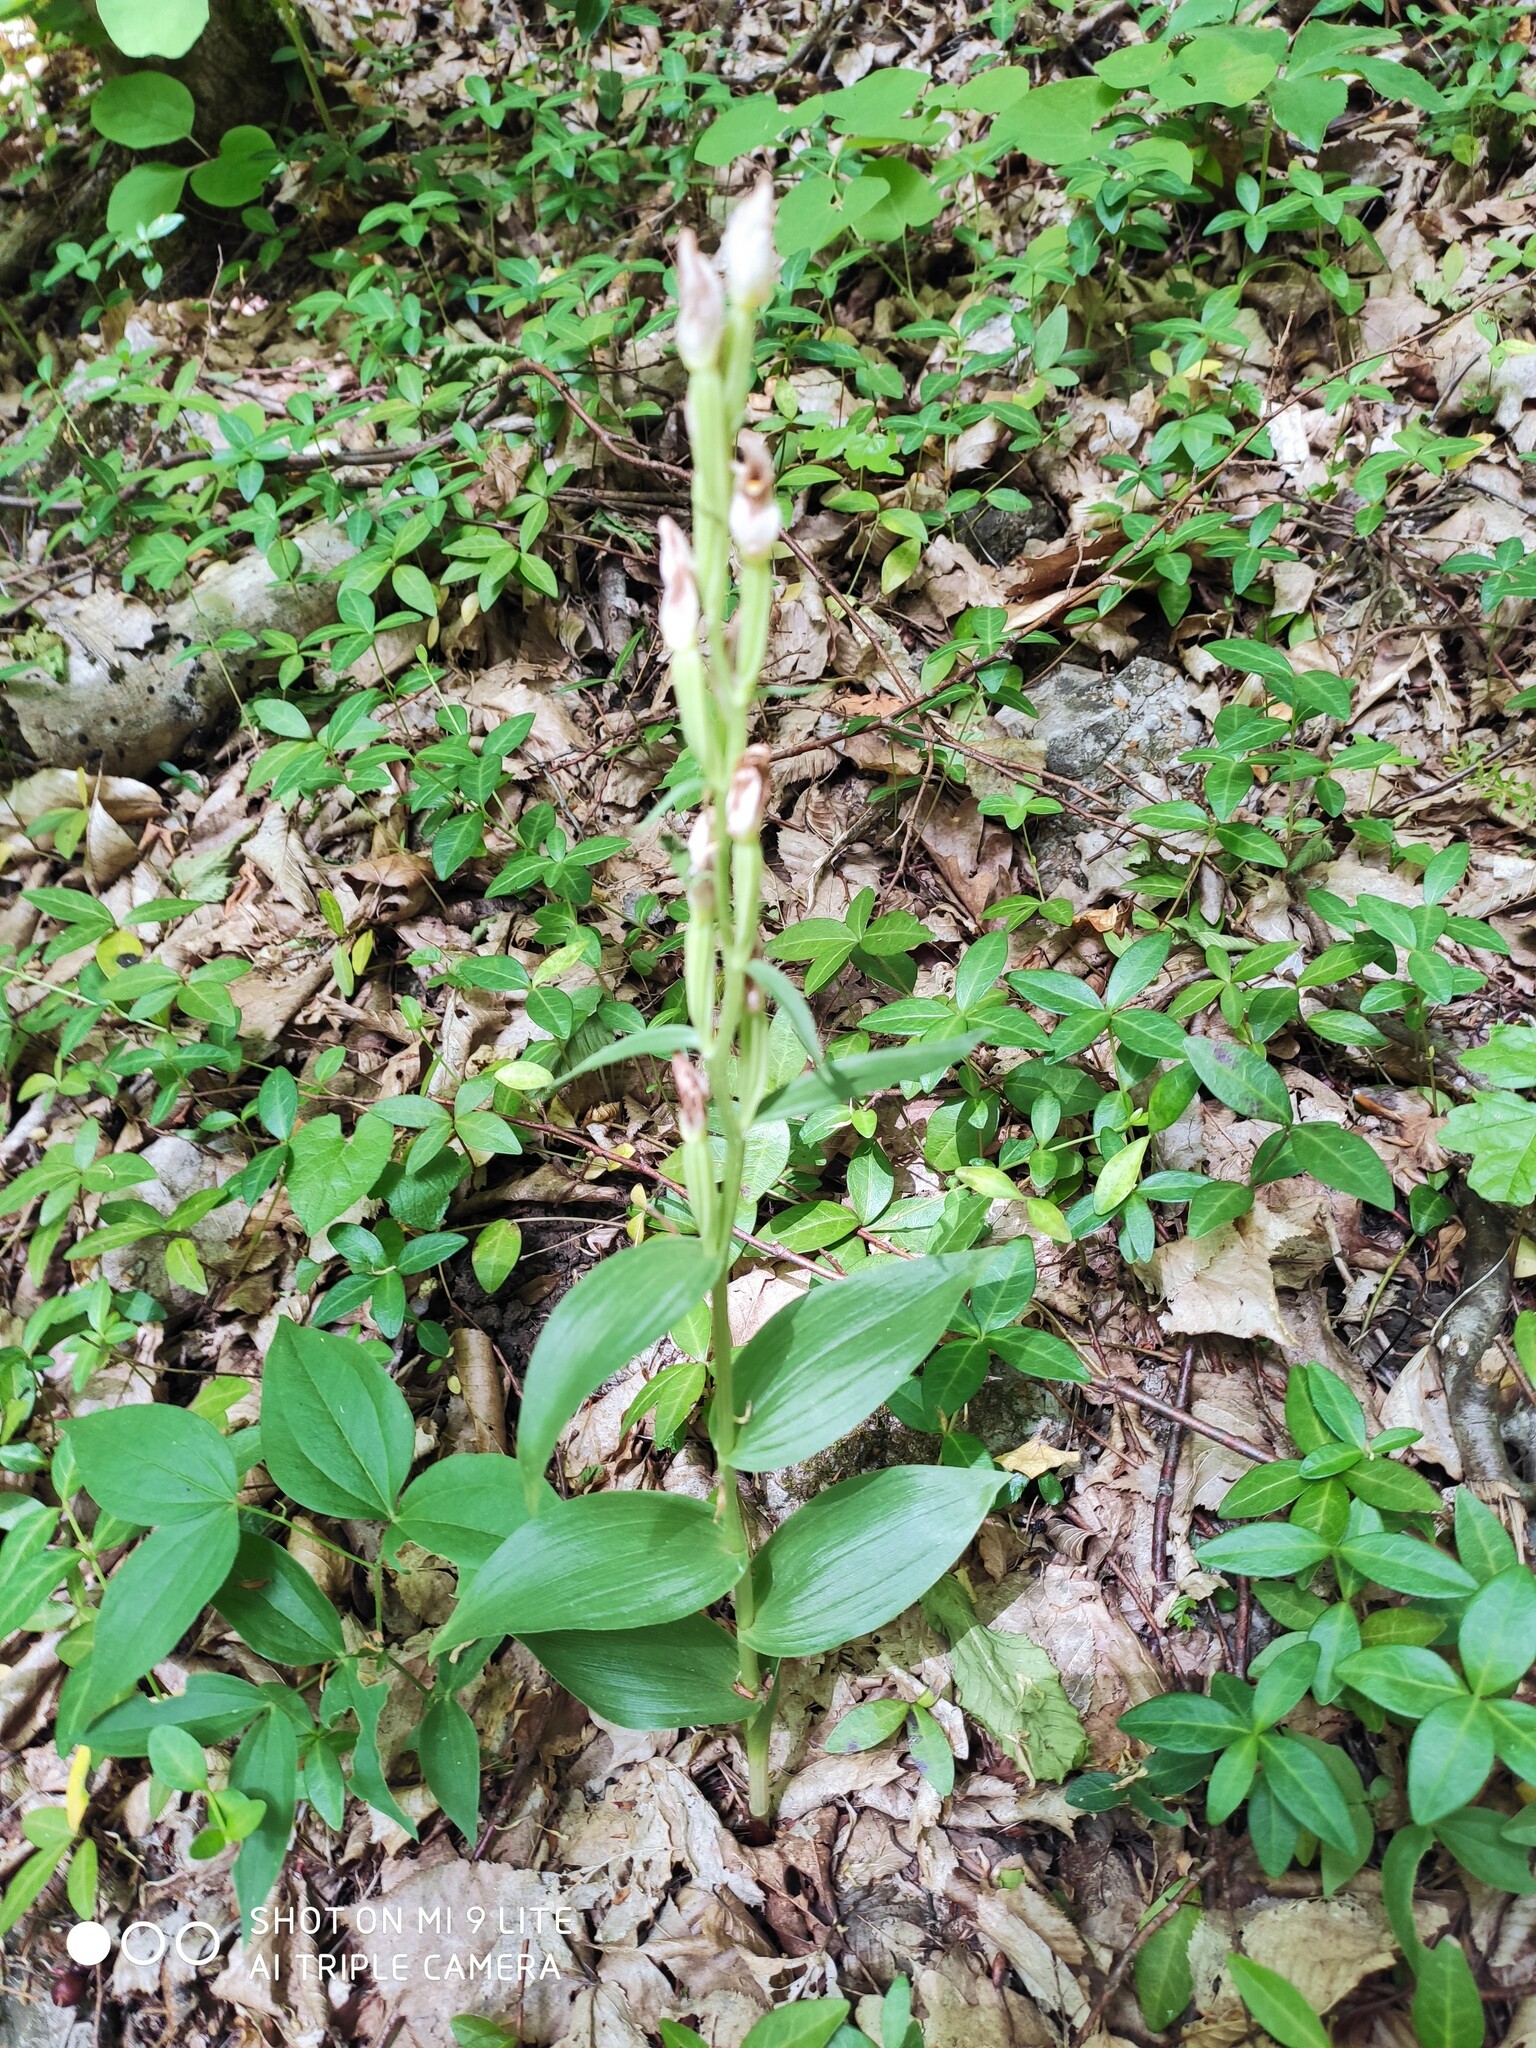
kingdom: Plantae
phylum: Tracheophyta
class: Liliopsida
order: Asparagales
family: Orchidaceae
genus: Cephalanthera
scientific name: Cephalanthera damasonium
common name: White helleborine
